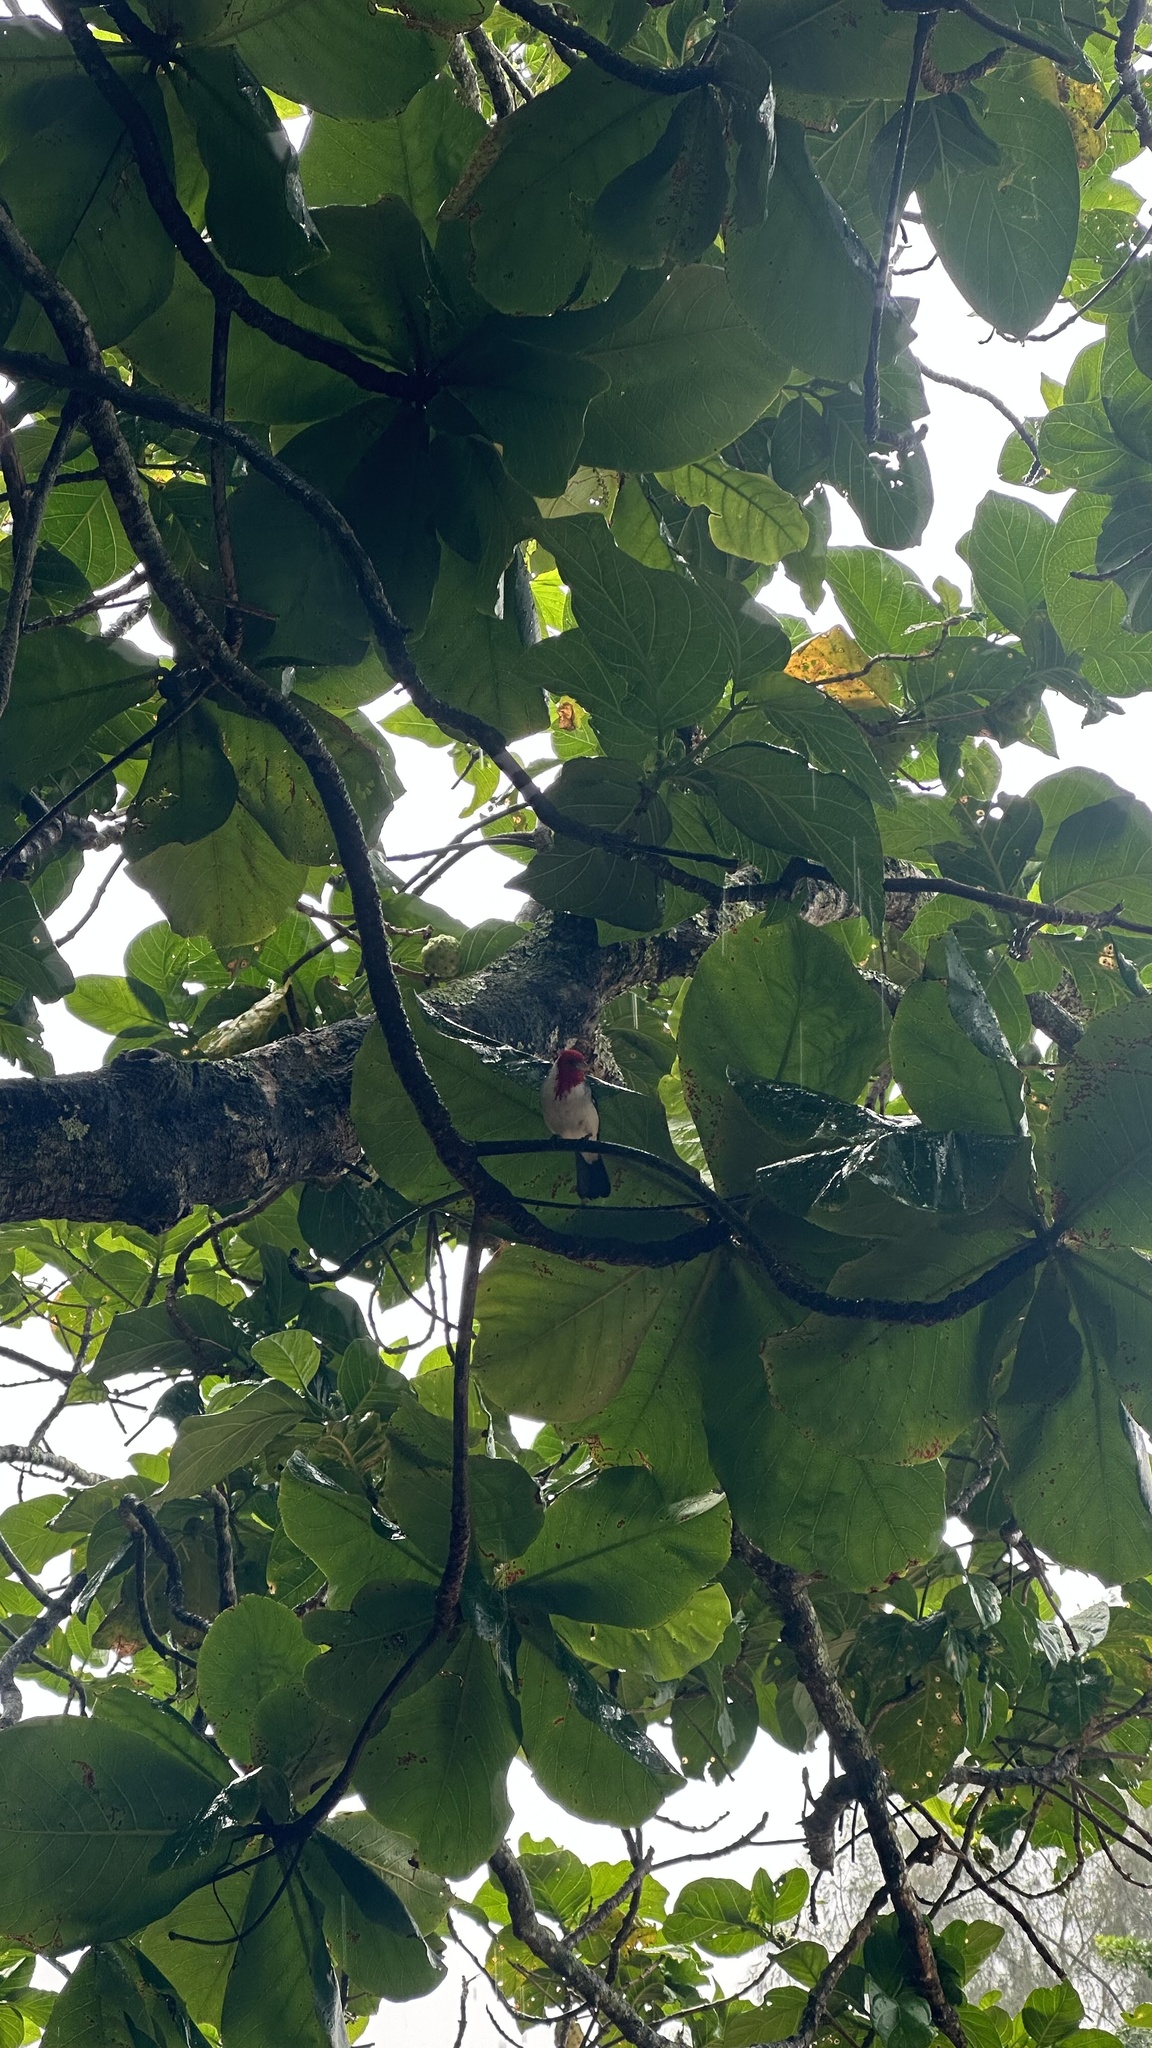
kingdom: Animalia
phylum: Chordata
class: Aves
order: Passeriformes
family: Thraupidae
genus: Paroaria
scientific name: Paroaria coronata
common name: Red-crested cardinal
